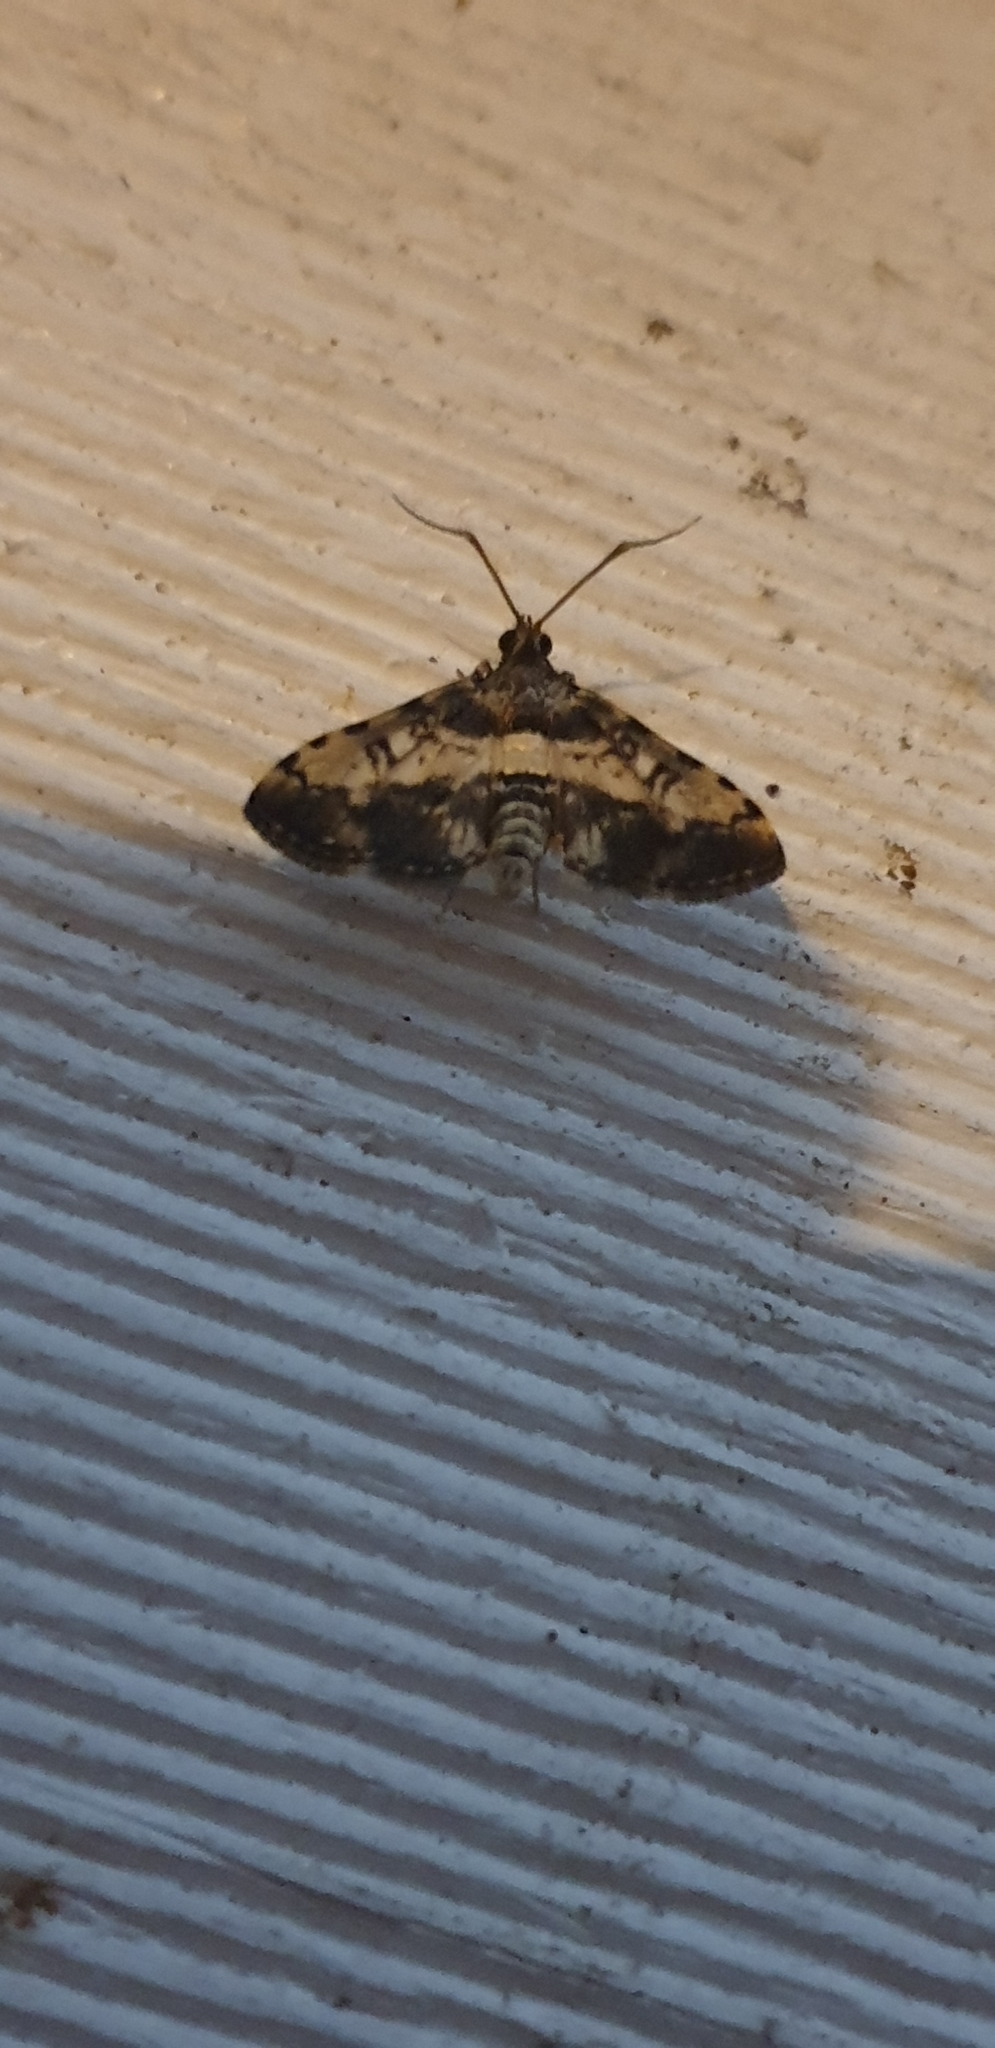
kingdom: Animalia
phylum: Arthropoda
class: Insecta
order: Lepidoptera
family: Crambidae
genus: Nacoleia
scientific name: Nacoleia amphicedalis
